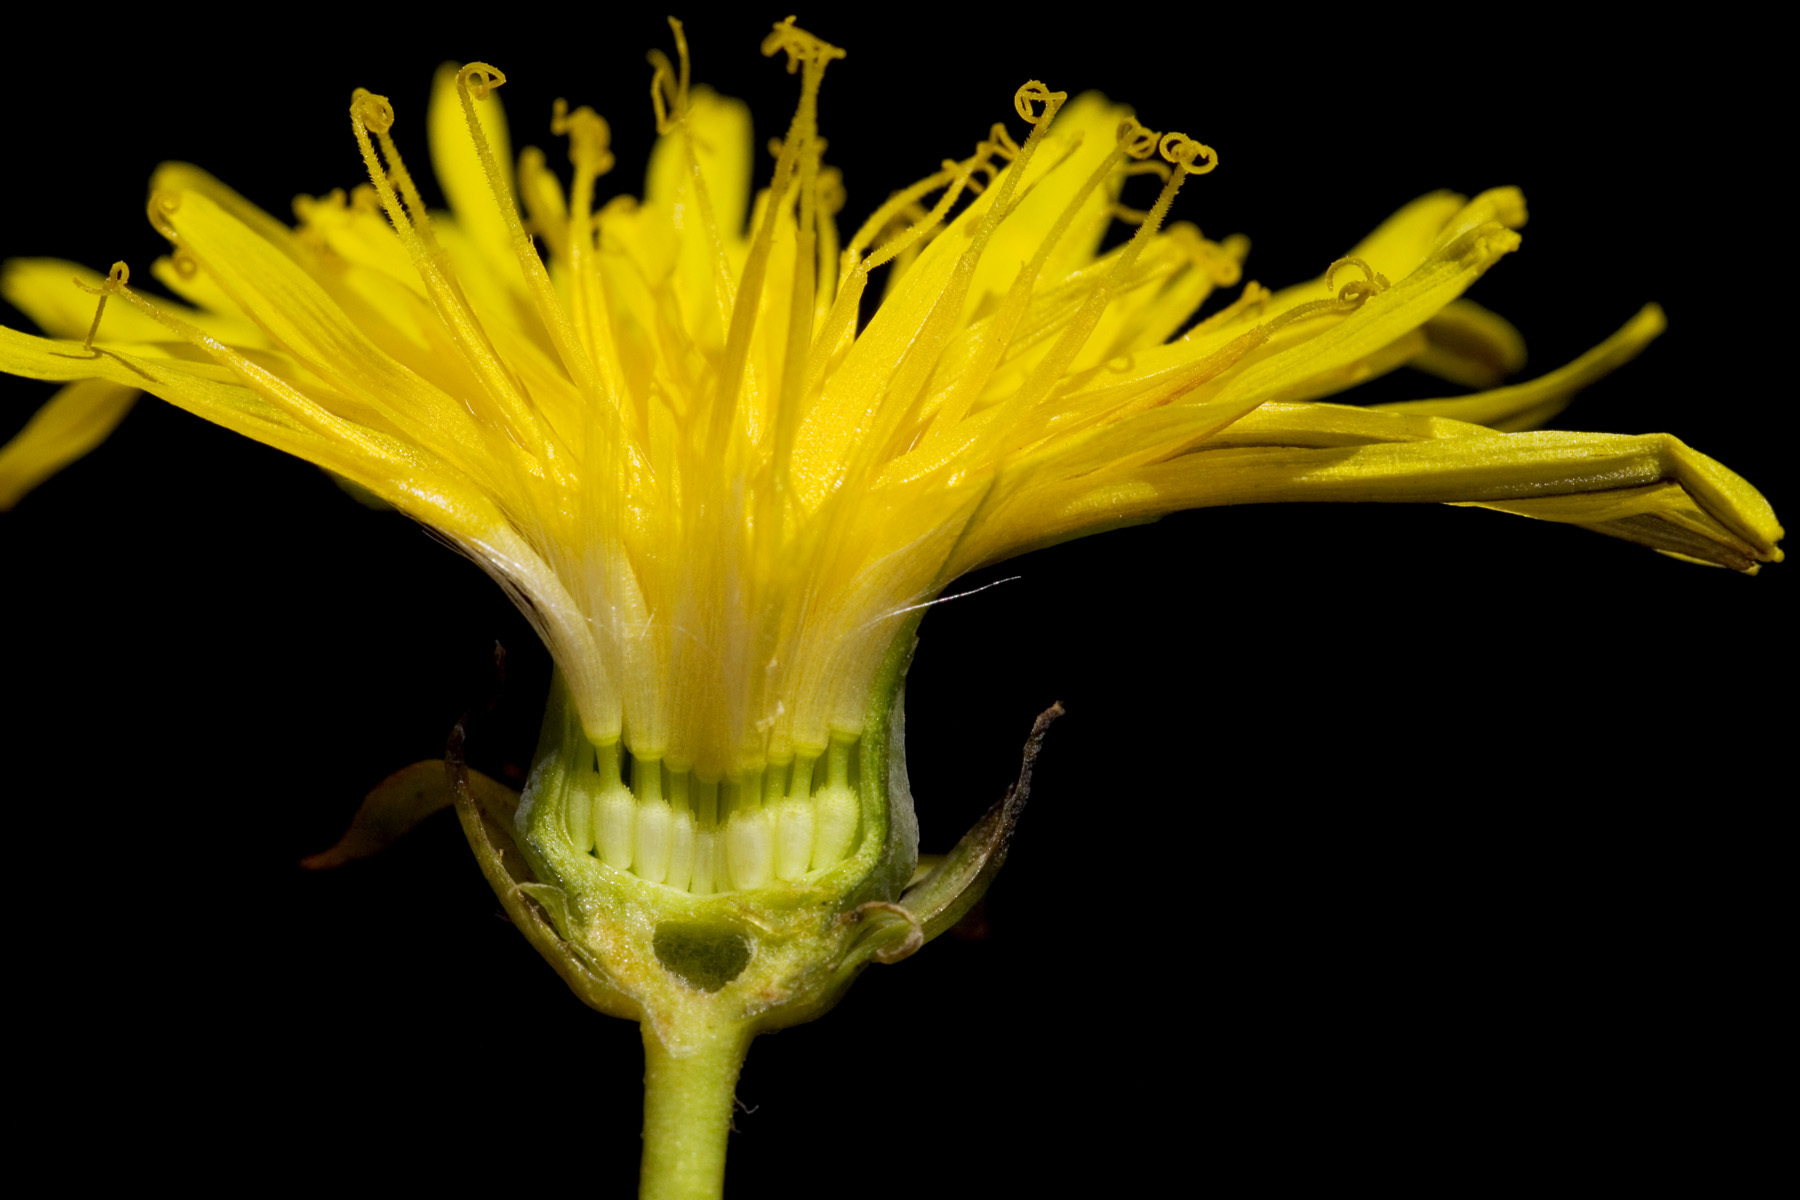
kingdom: Plantae
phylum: Tracheophyta
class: Magnoliopsida
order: Asterales
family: Asteraceae
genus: Taraxacum
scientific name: Taraxacum officinale
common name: Common dandelion
